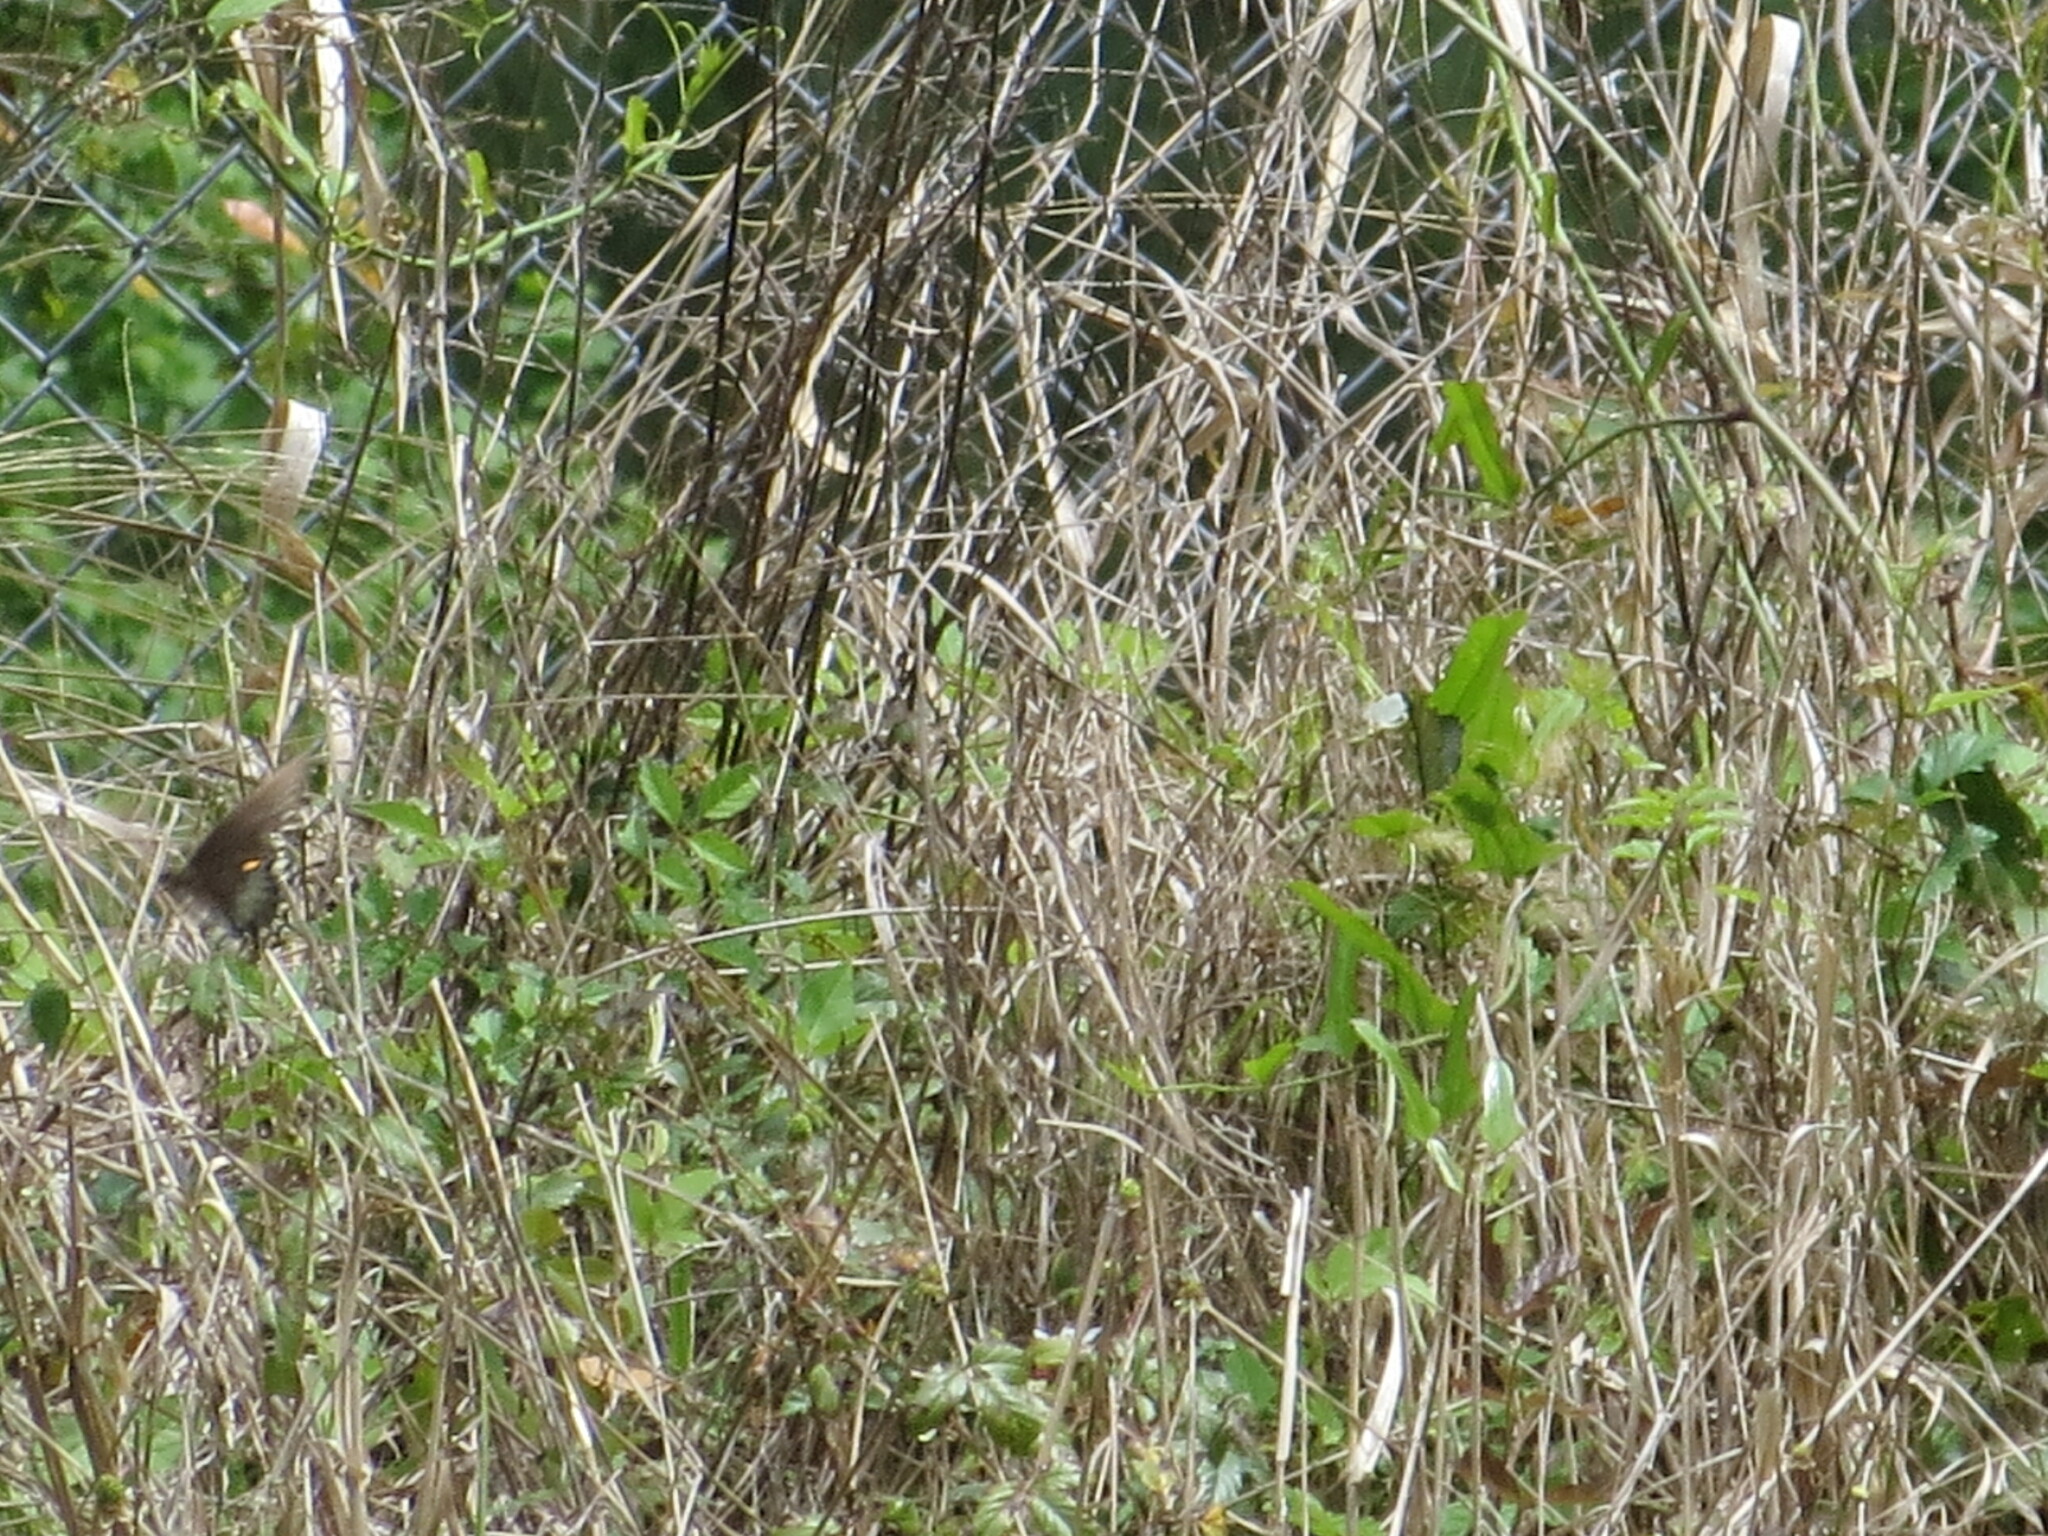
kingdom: Animalia
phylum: Arthropoda
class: Insecta
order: Lepidoptera
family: Papilionidae
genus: Papilio
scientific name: Papilio troilus
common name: Spicebush swallowtail
